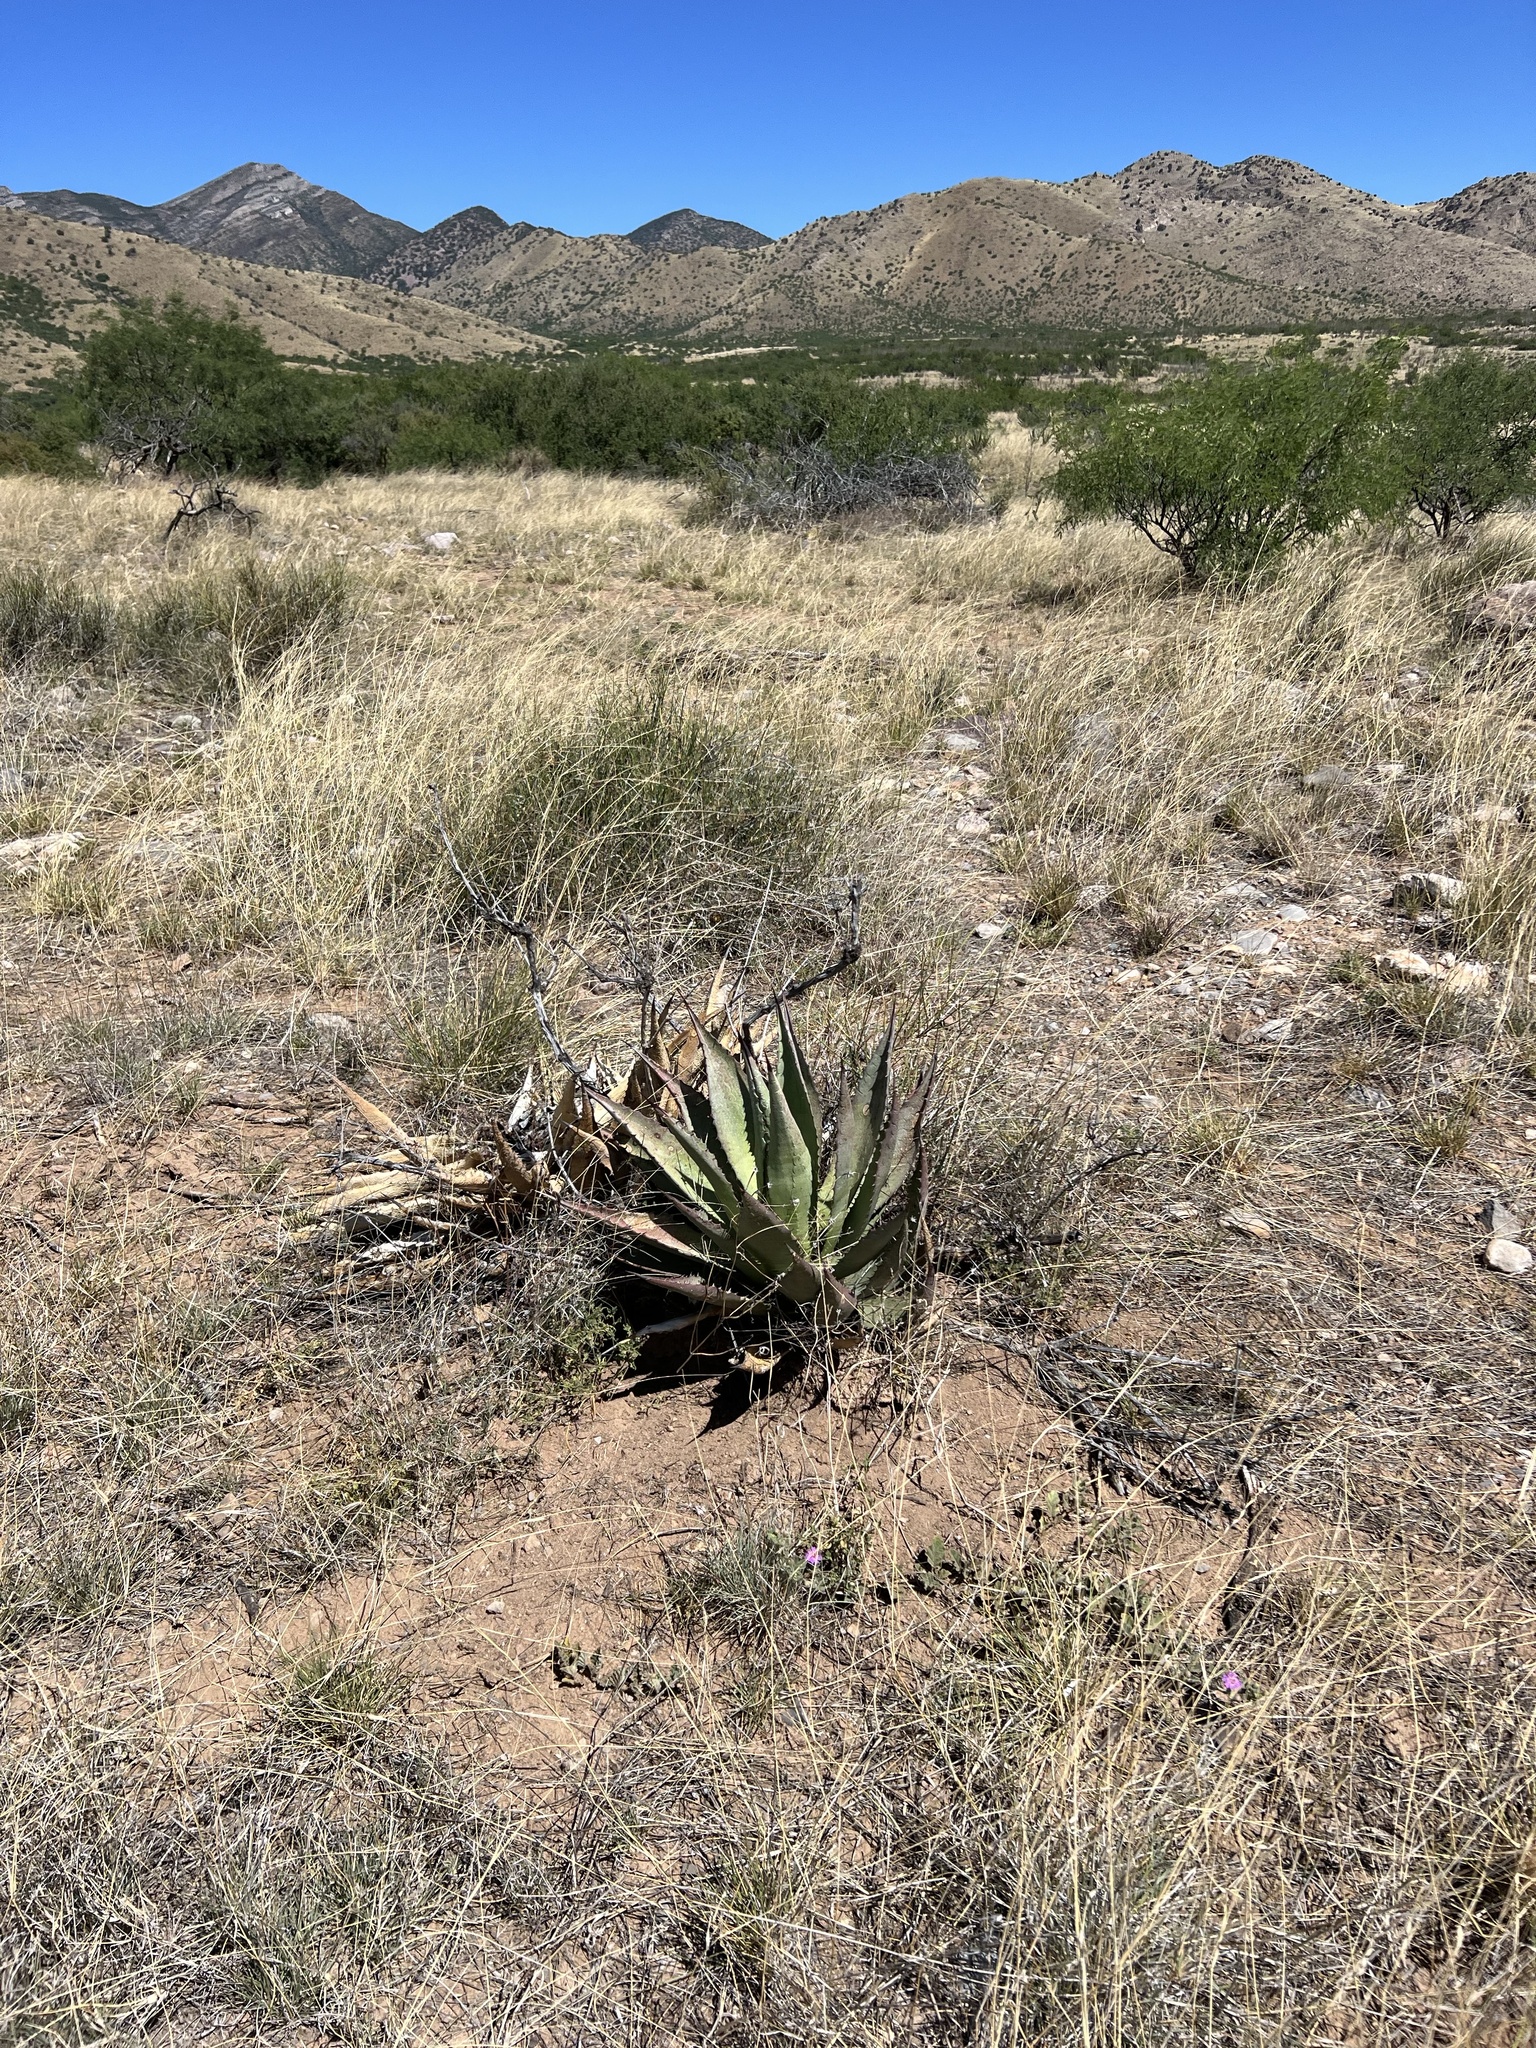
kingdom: Plantae
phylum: Tracheophyta
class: Liliopsida
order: Asparagales
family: Asparagaceae
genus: Agave
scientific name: Agave palmeri
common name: Palmer agave
